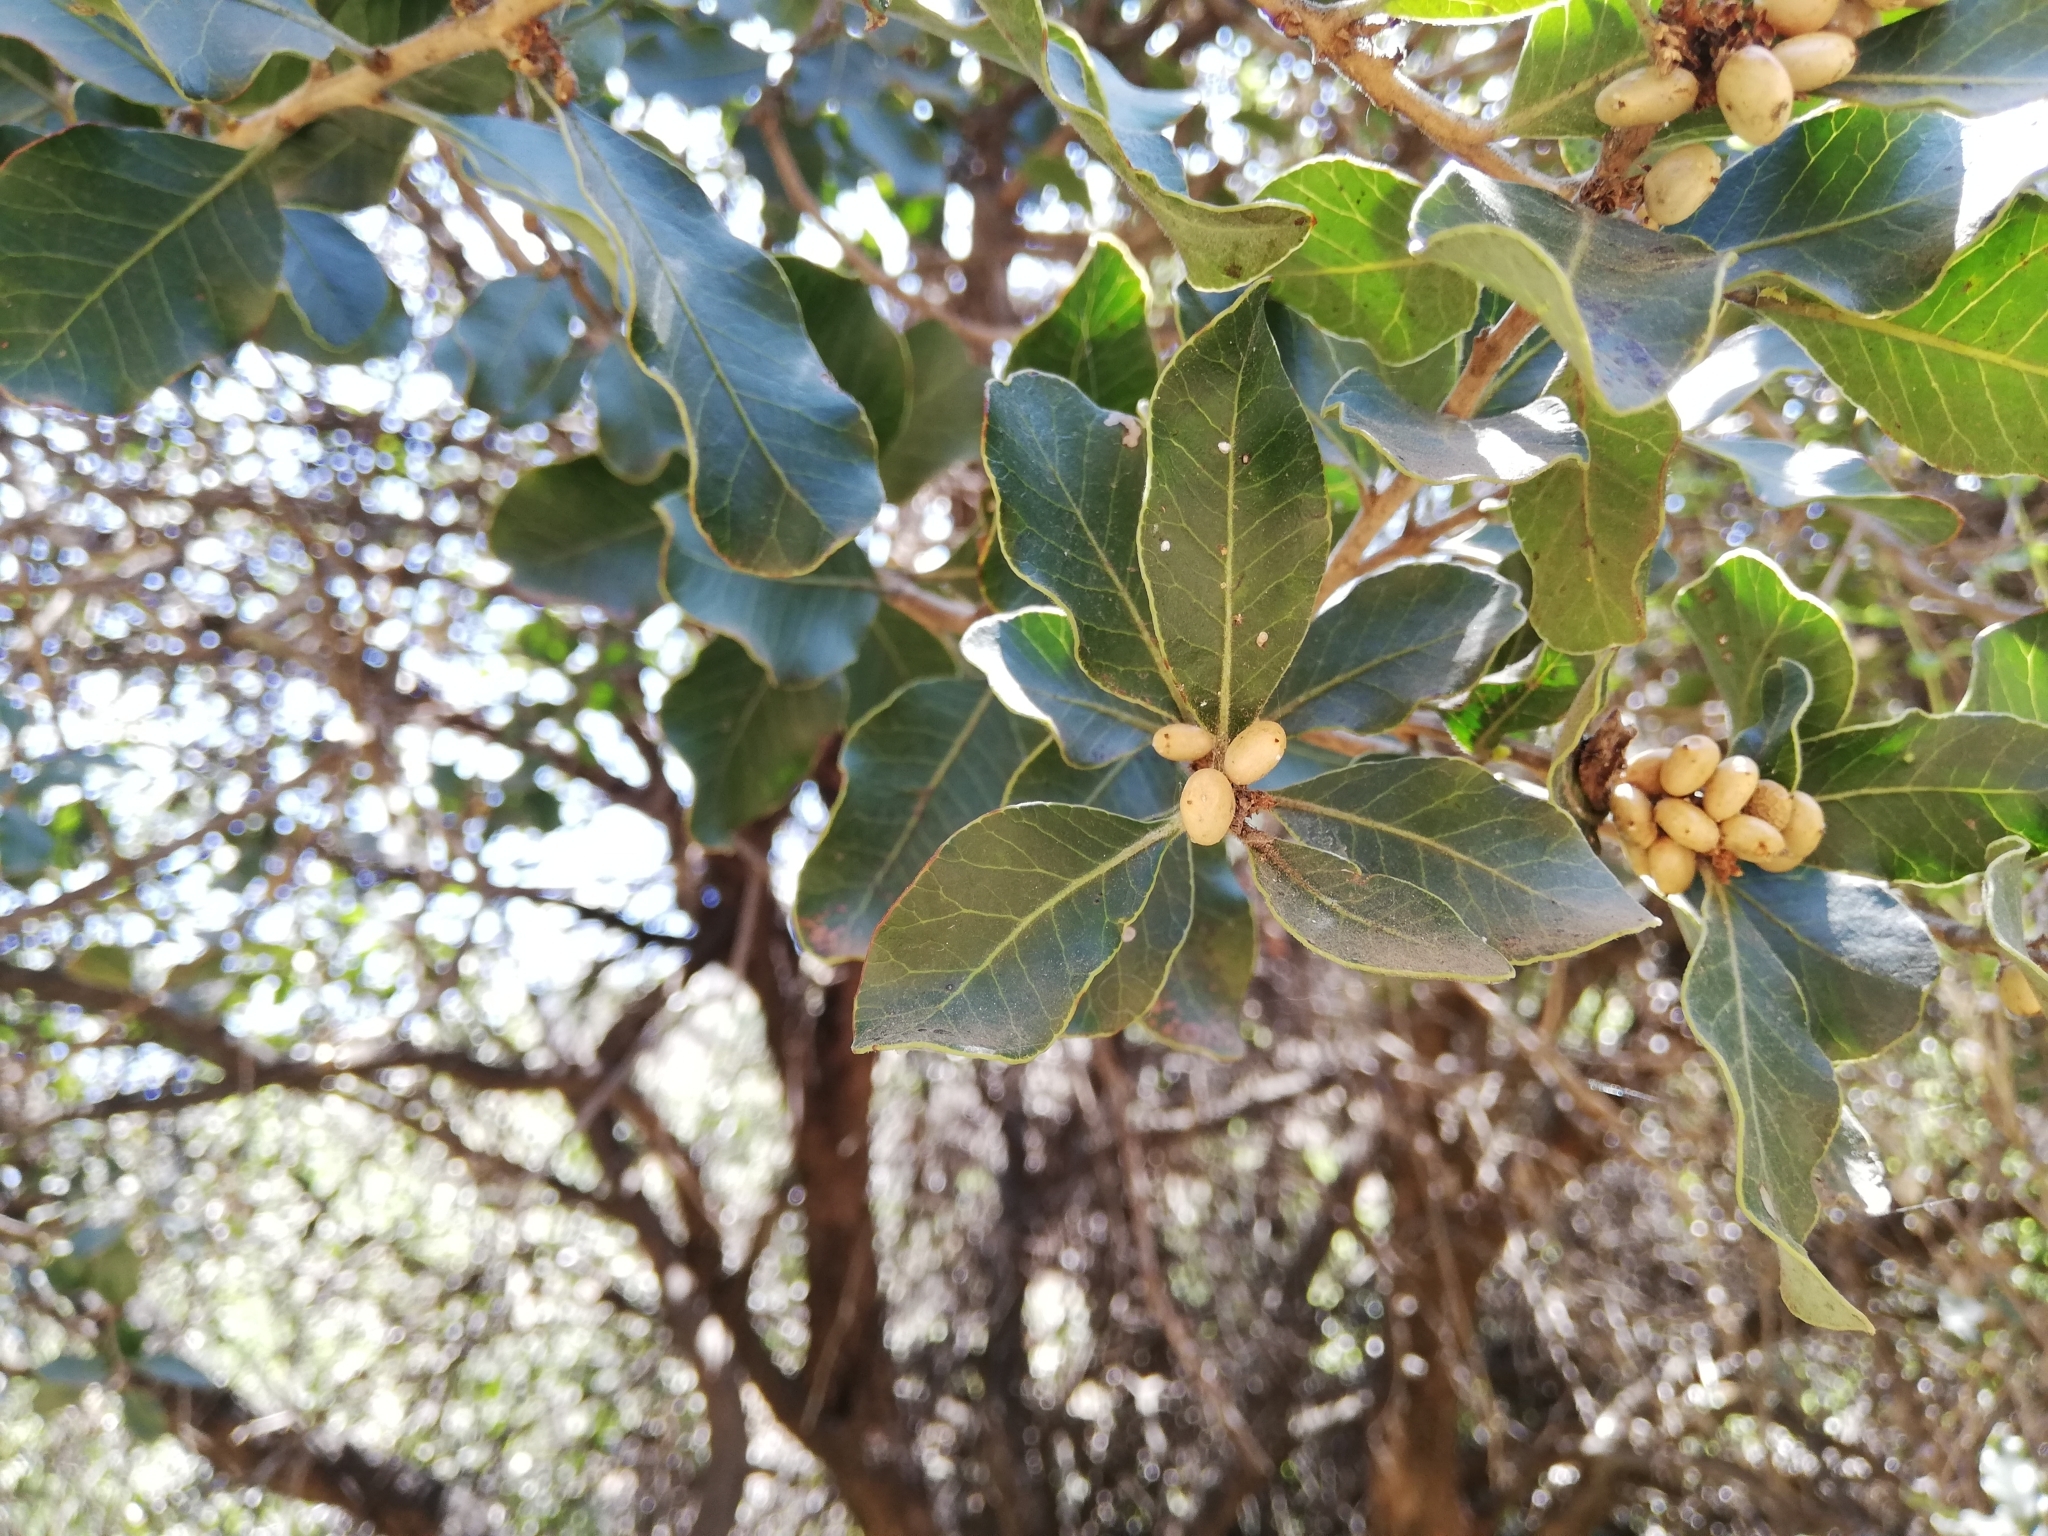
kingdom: Plantae
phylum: Tracheophyta
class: Magnoliopsida
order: Sapindales
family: Anacardiaceae
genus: Lithraea
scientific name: Lithraea caustica
